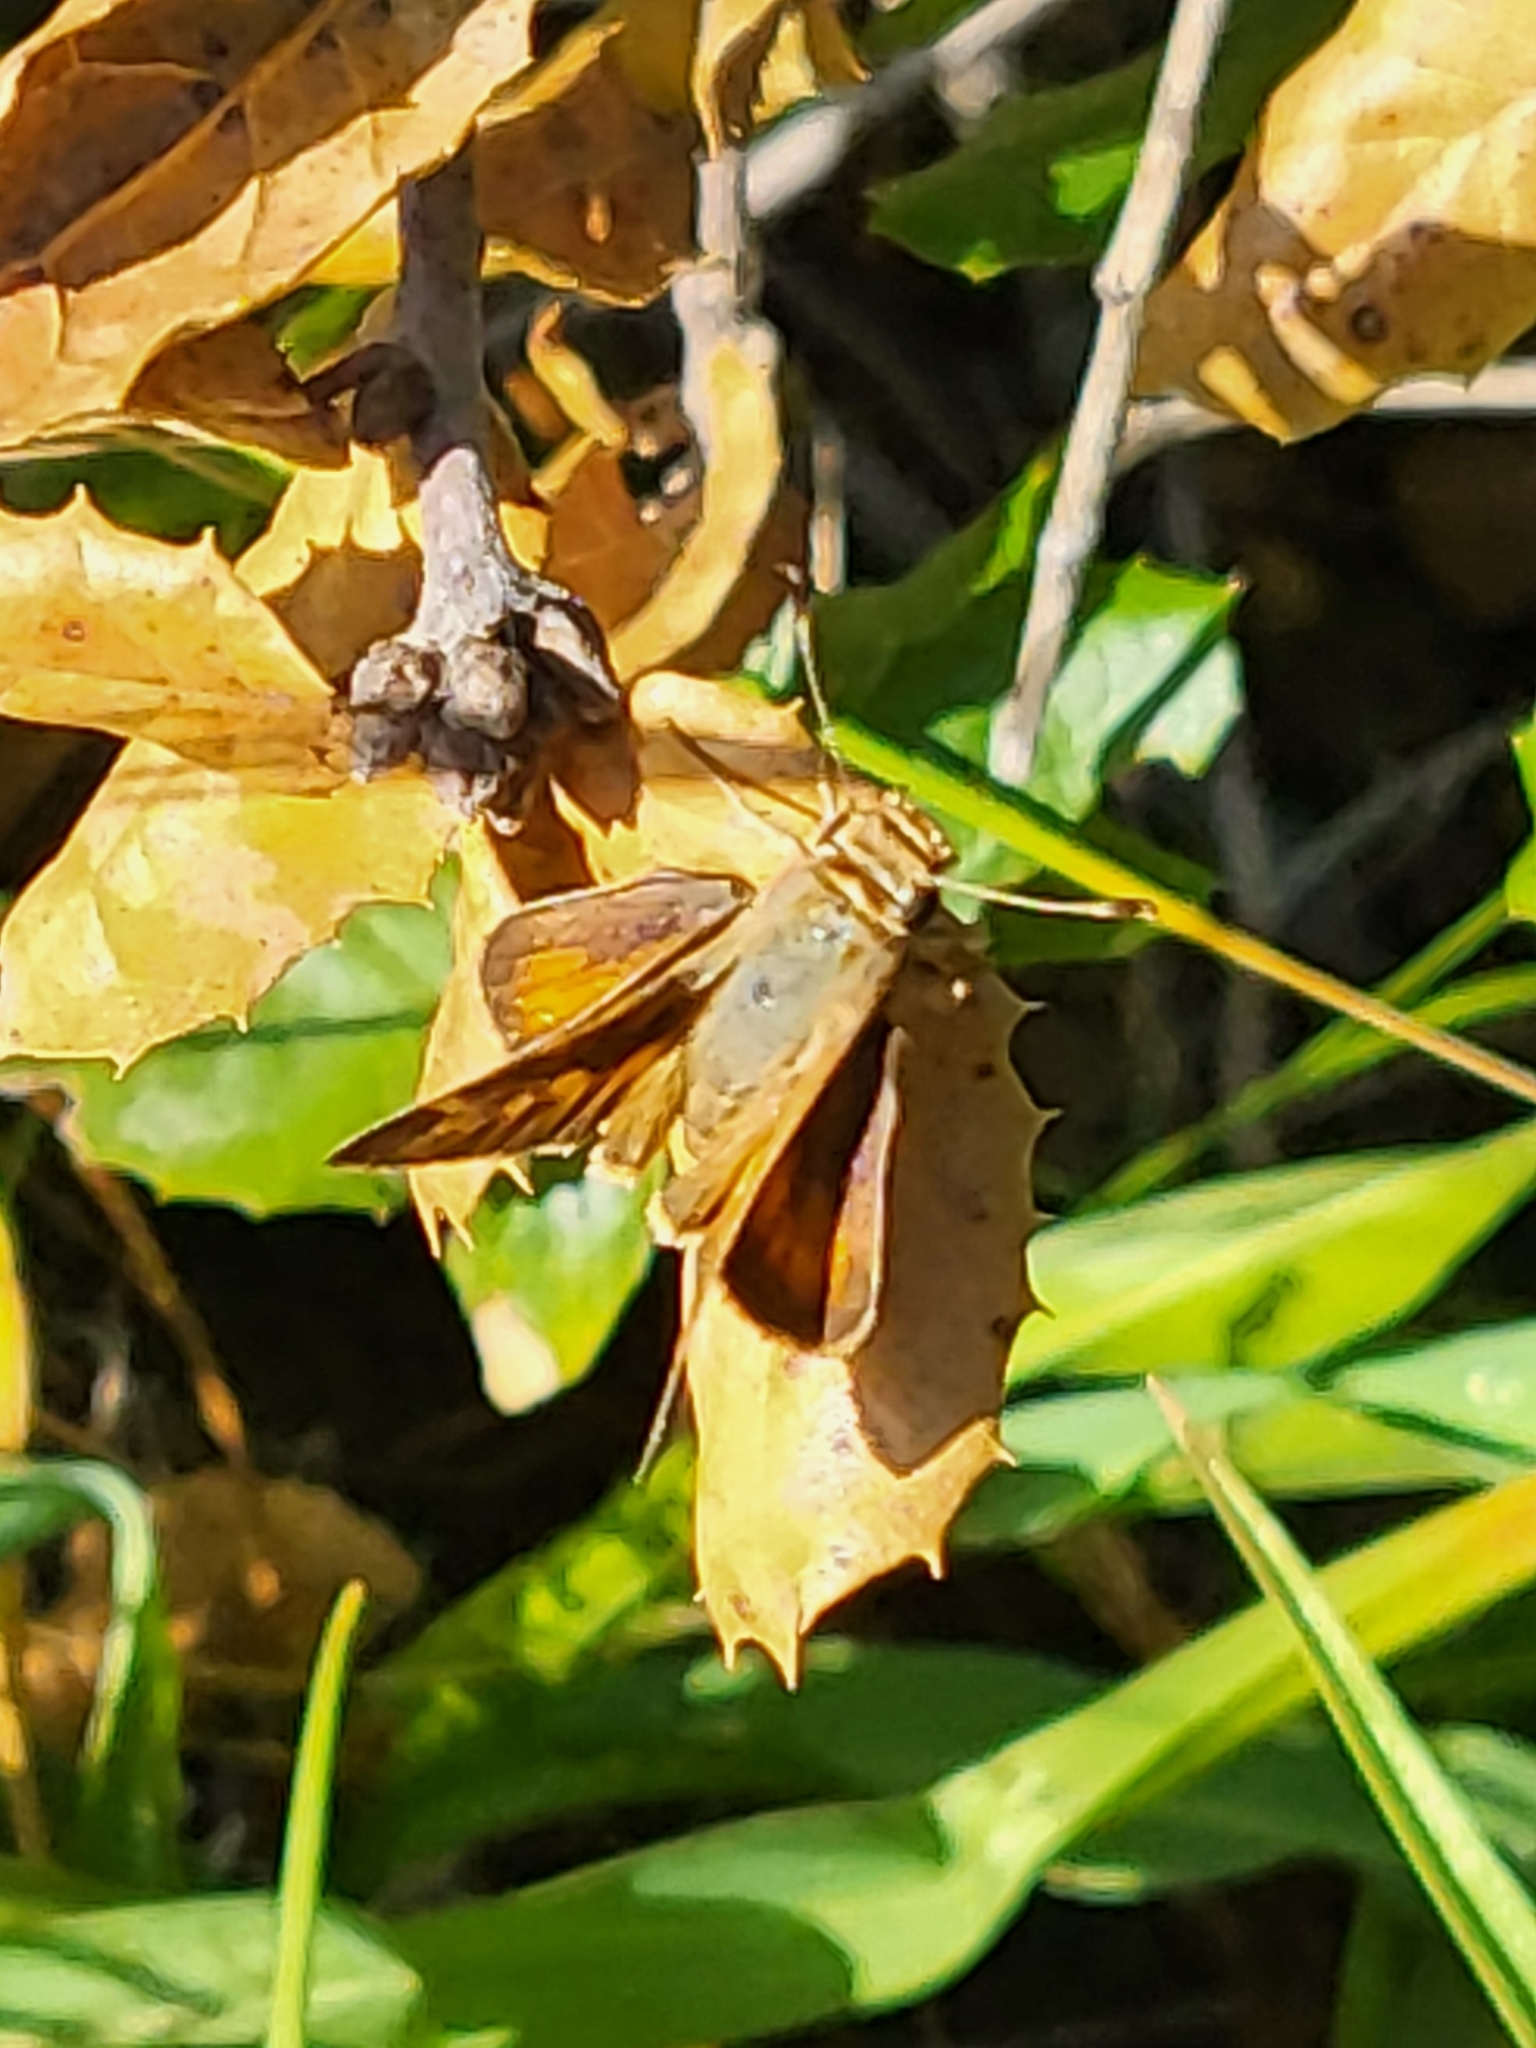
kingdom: Animalia
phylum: Arthropoda
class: Insecta
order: Lepidoptera
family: Hesperiidae
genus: Lon
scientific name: Lon melane
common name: Umber skipper
